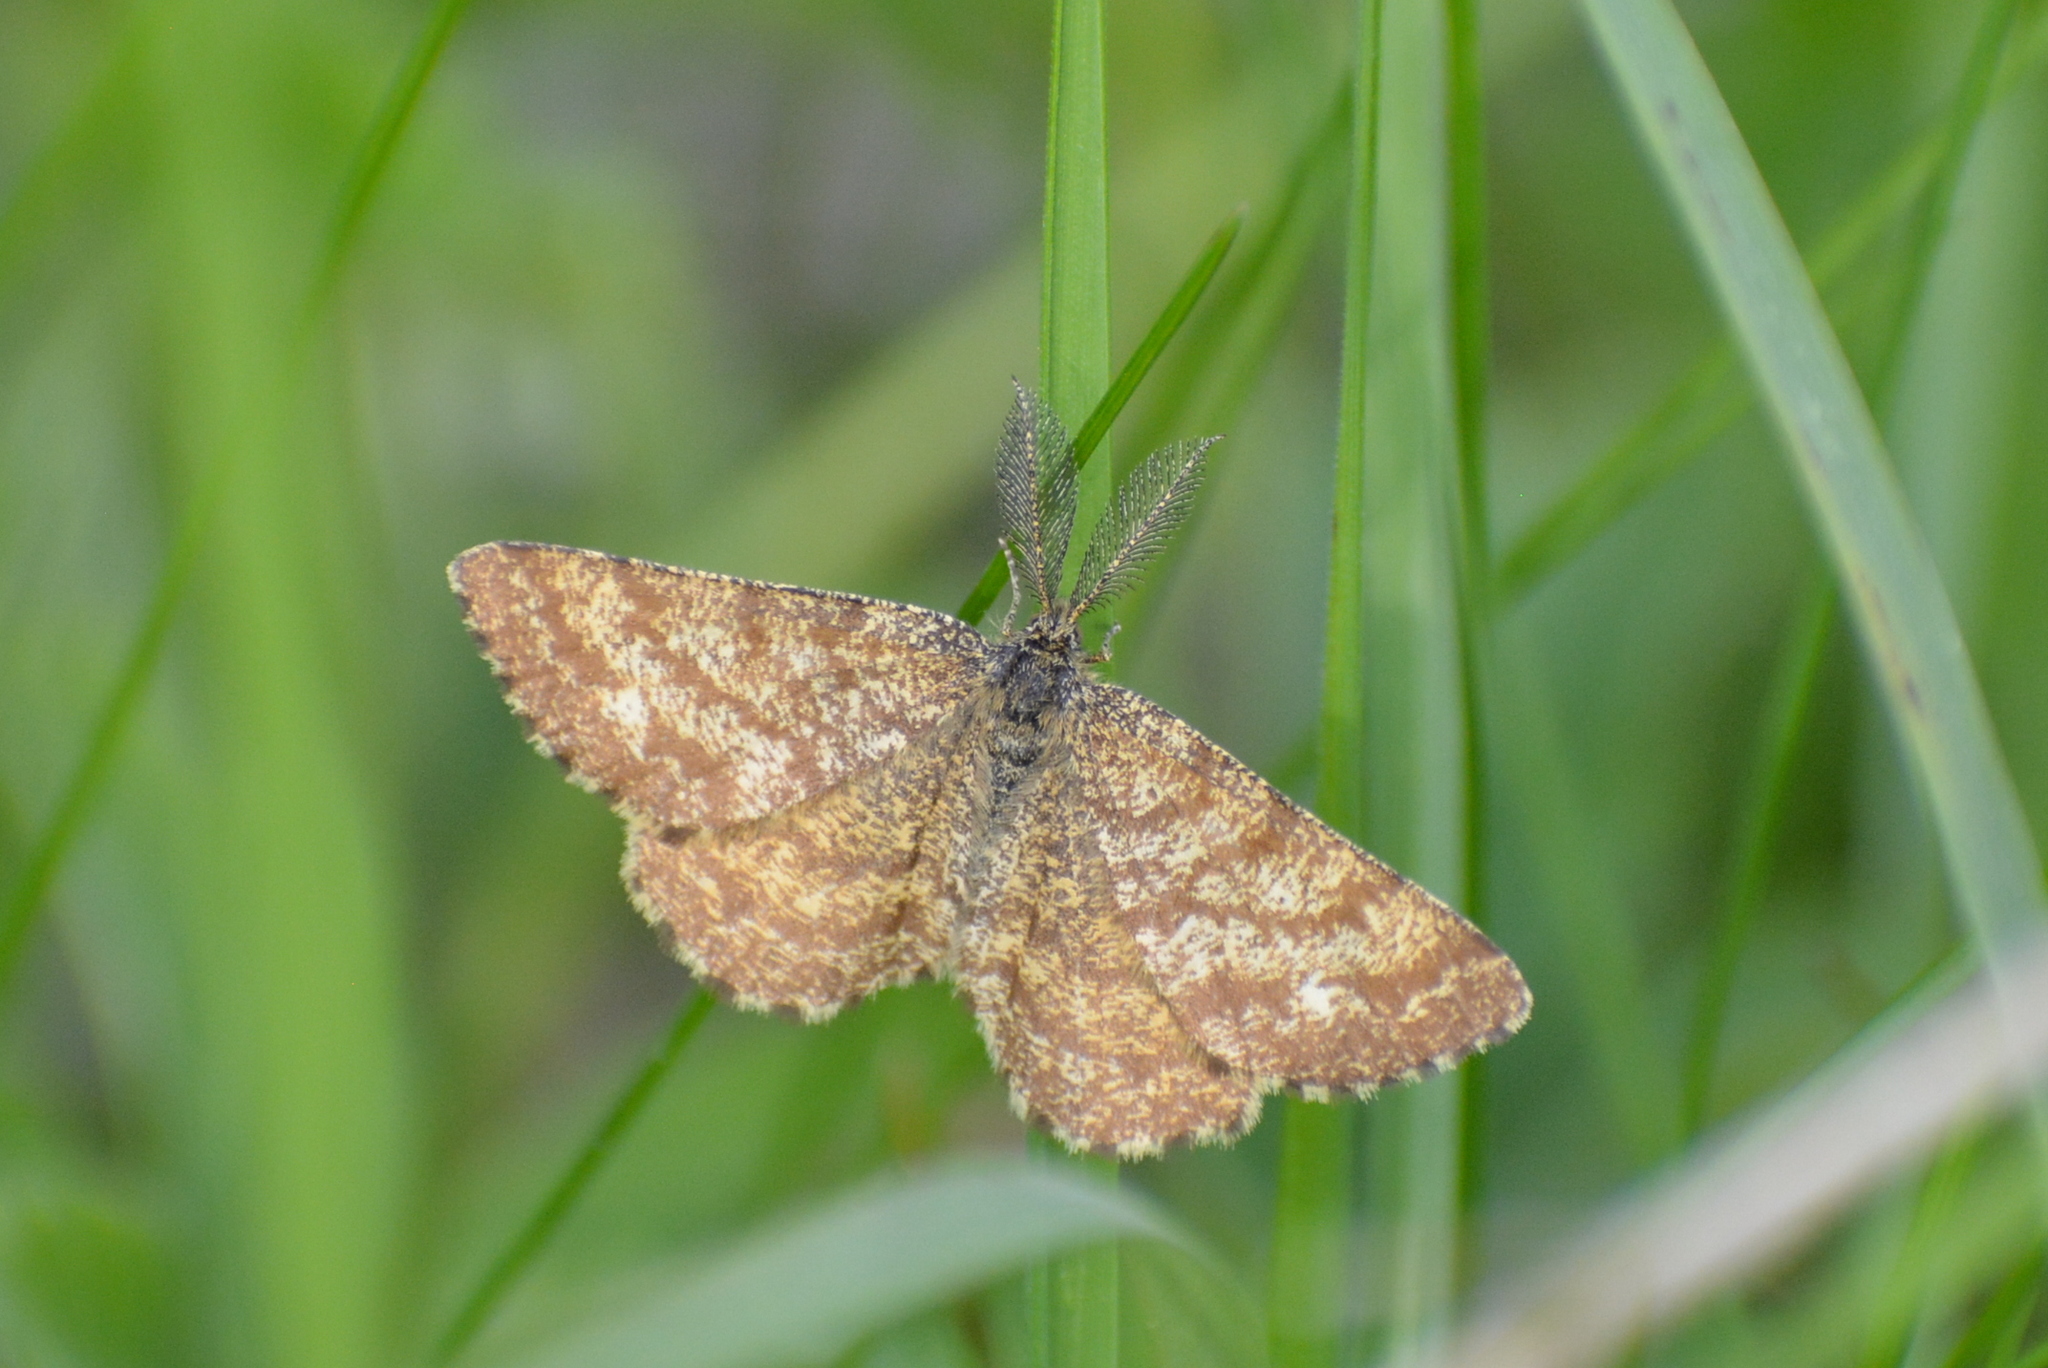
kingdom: Animalia
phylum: Arthropoda
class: Insecta
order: Lepidoptera
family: Geometridae
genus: Ematurga
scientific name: Ematurga atomaria
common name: Common heath
